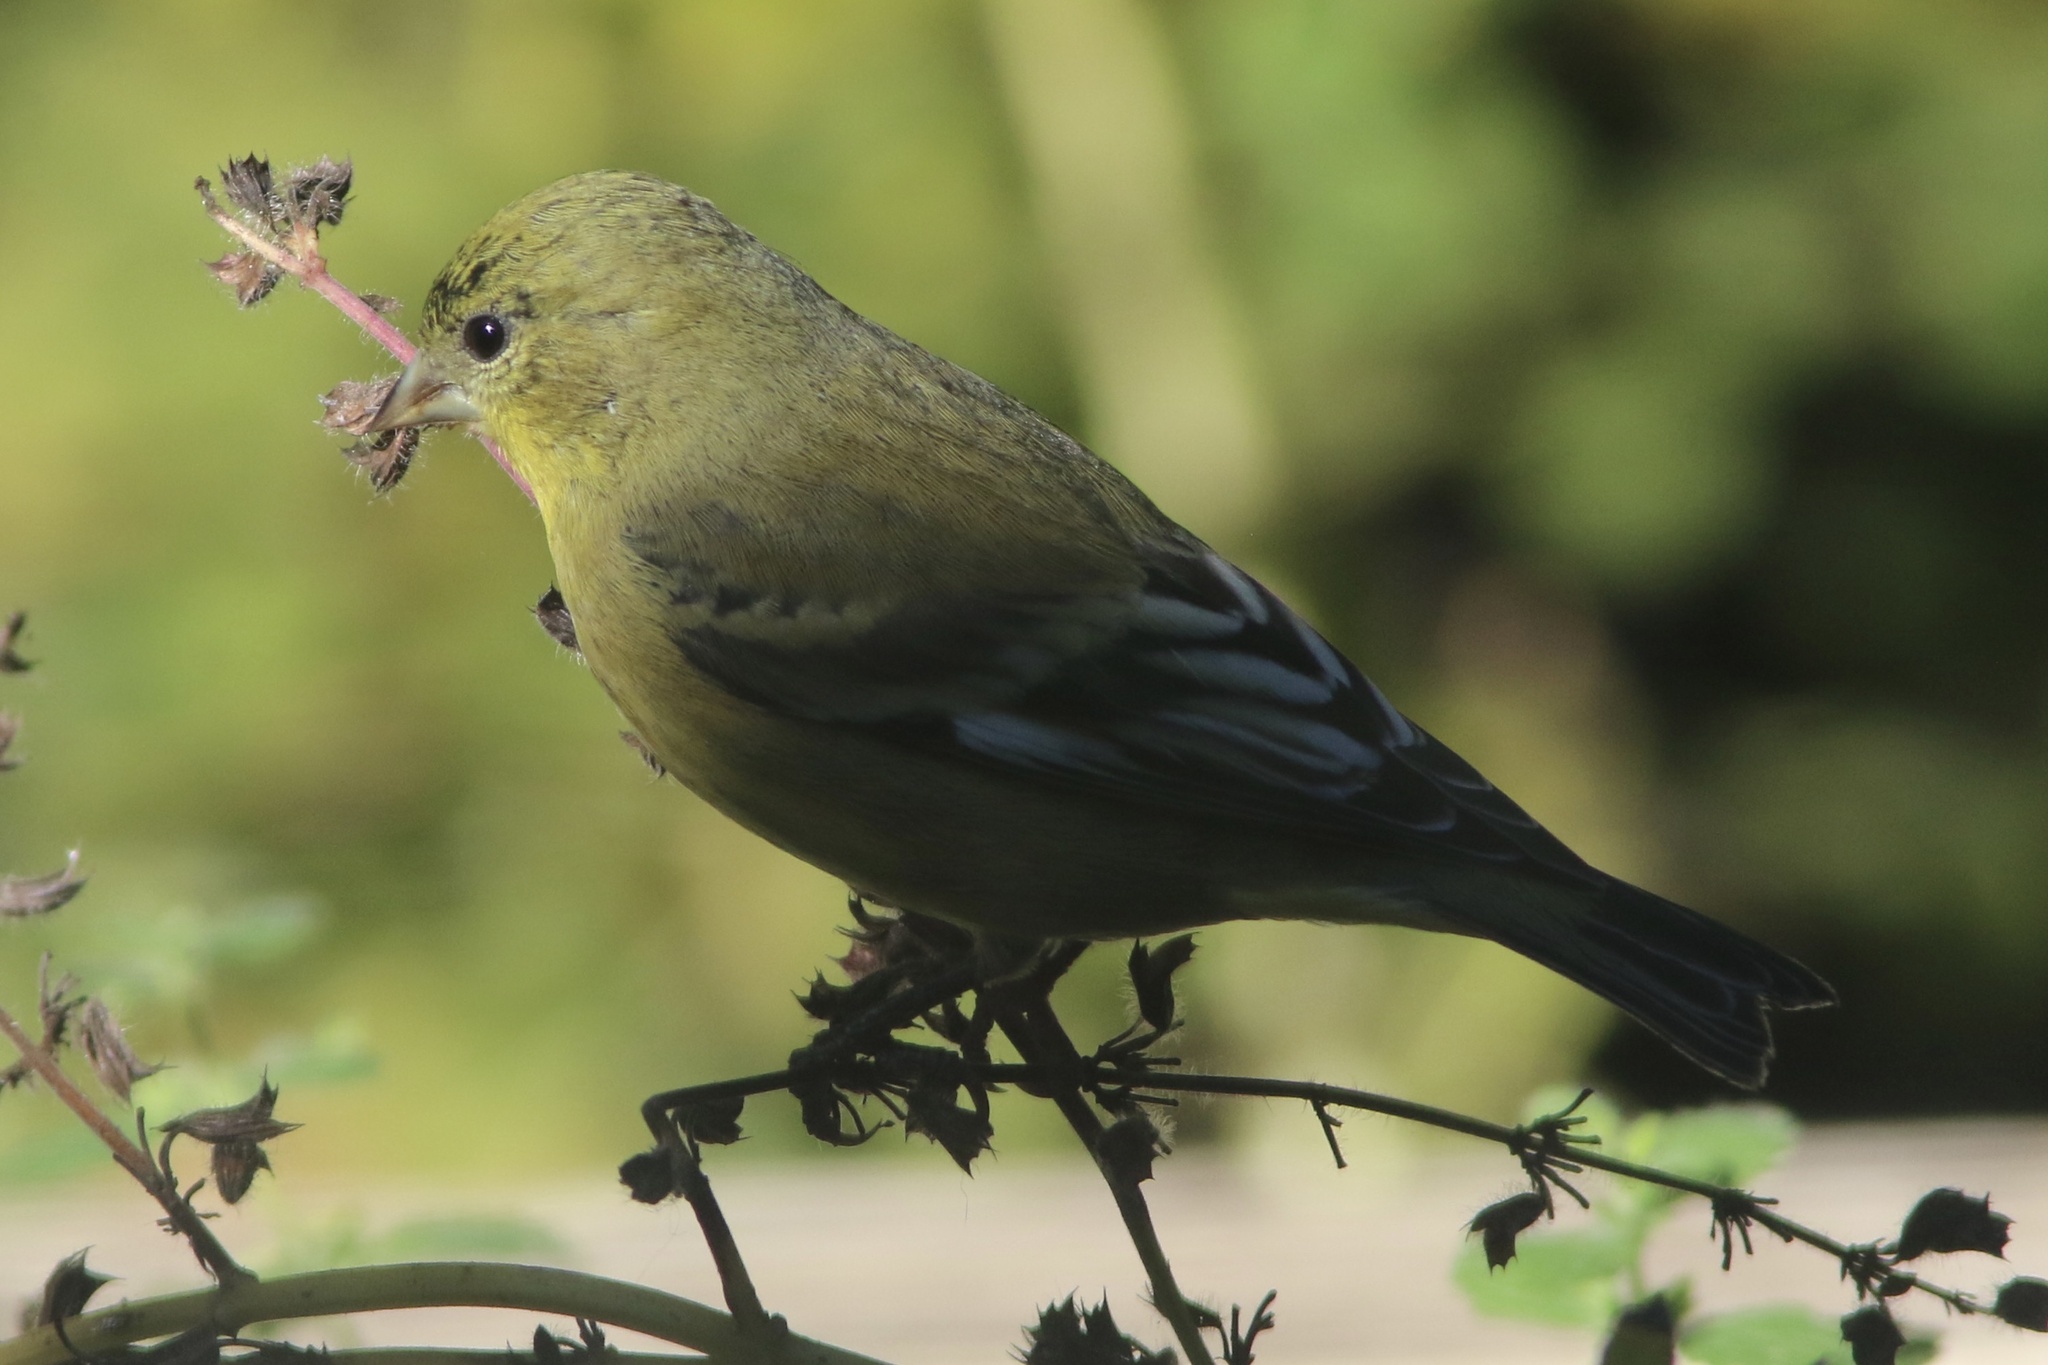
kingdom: Animalia
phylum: Chordata
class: Aves
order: Passeriformes
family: Fringillidae
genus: Spinus
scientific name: Spinus psaltria
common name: Lesser goldfinch
